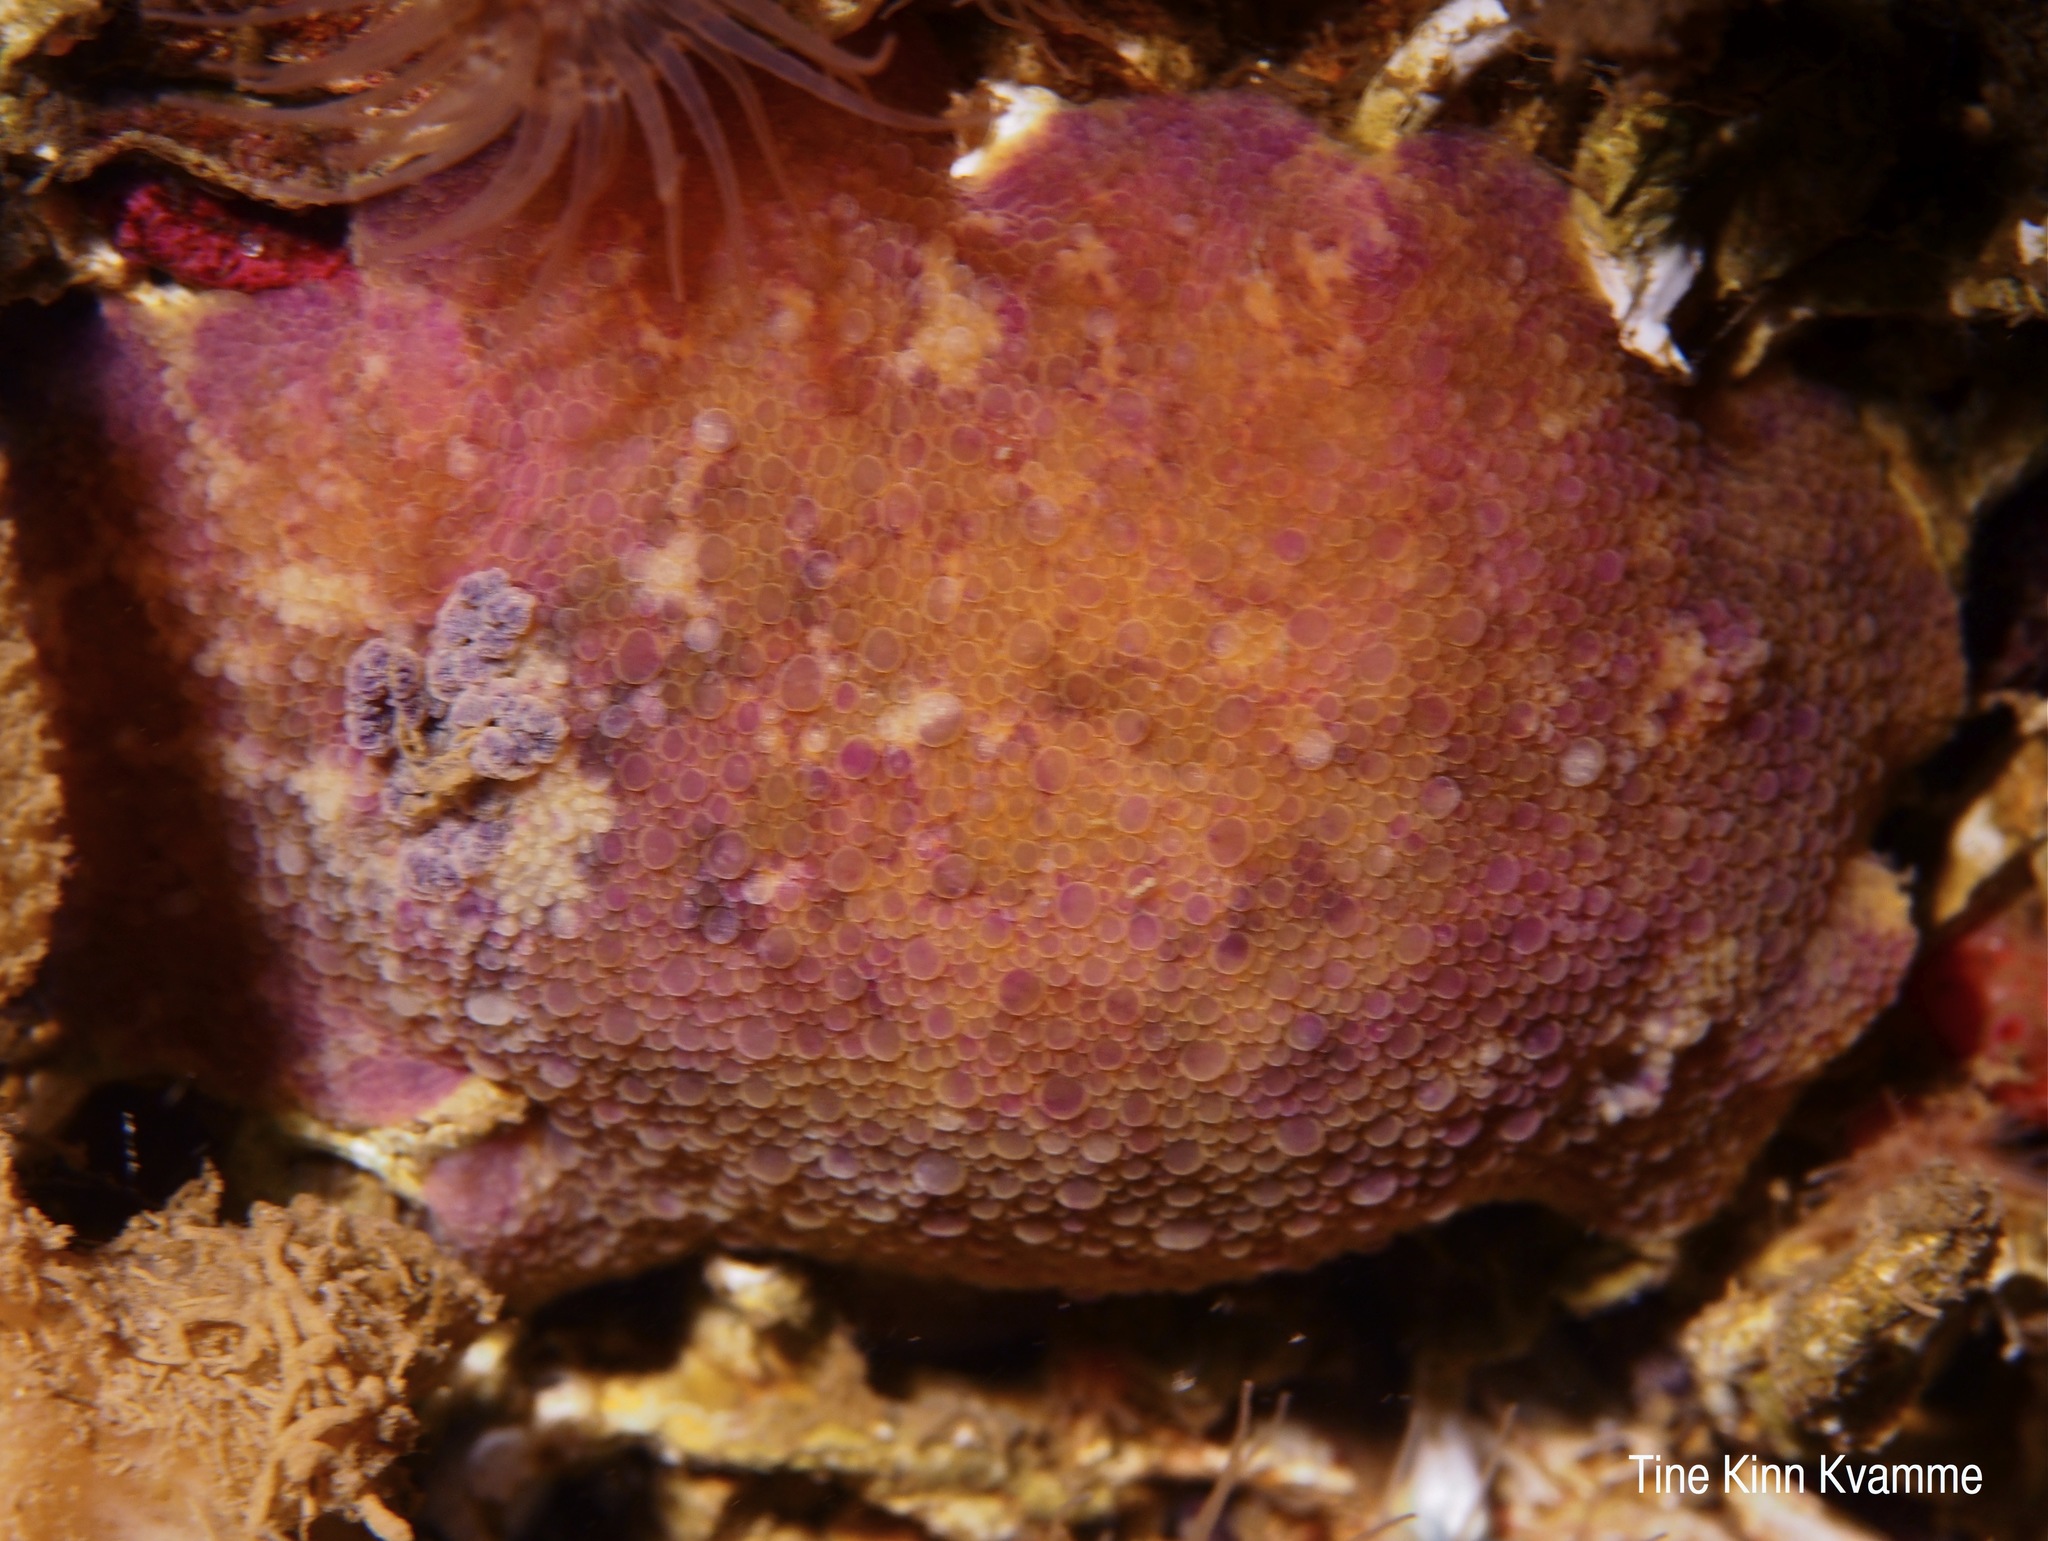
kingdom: Animalia
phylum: Mollusca
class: Gastropoda
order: Nudibranchia
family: Dorididae
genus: Doris
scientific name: Doris pseudoargus
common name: Sea lemon
